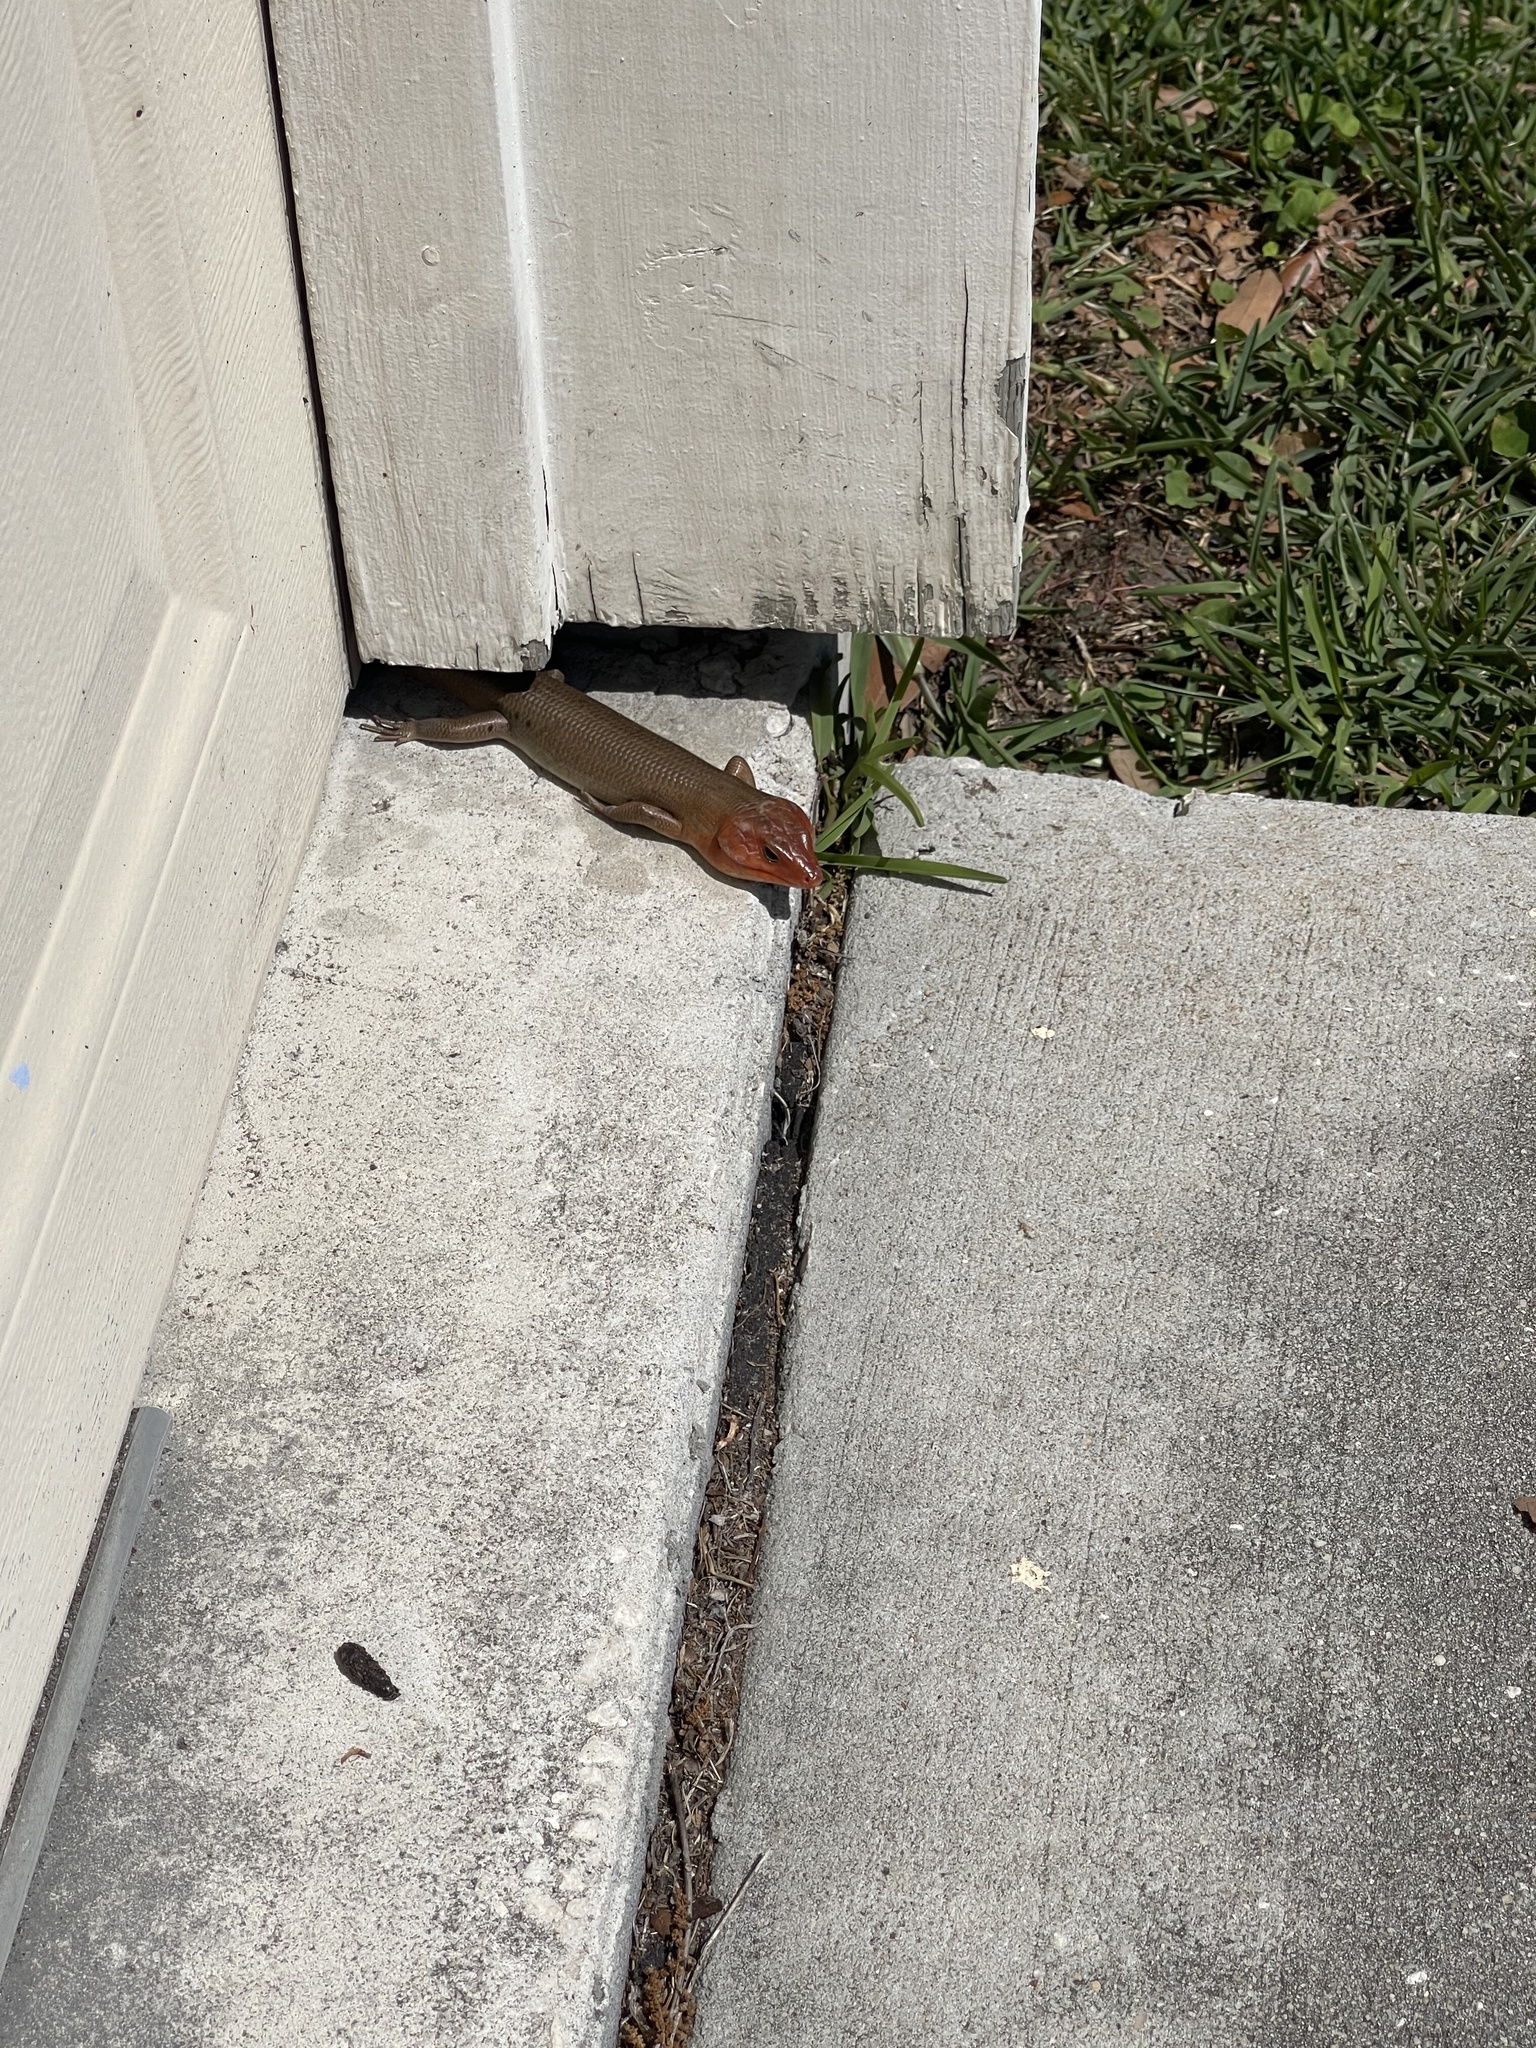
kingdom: Animalia
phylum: Chordata
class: Squamata
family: Scincidae
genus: Plestiodon
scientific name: Plestiodon laticeps
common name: Broadhead skink
